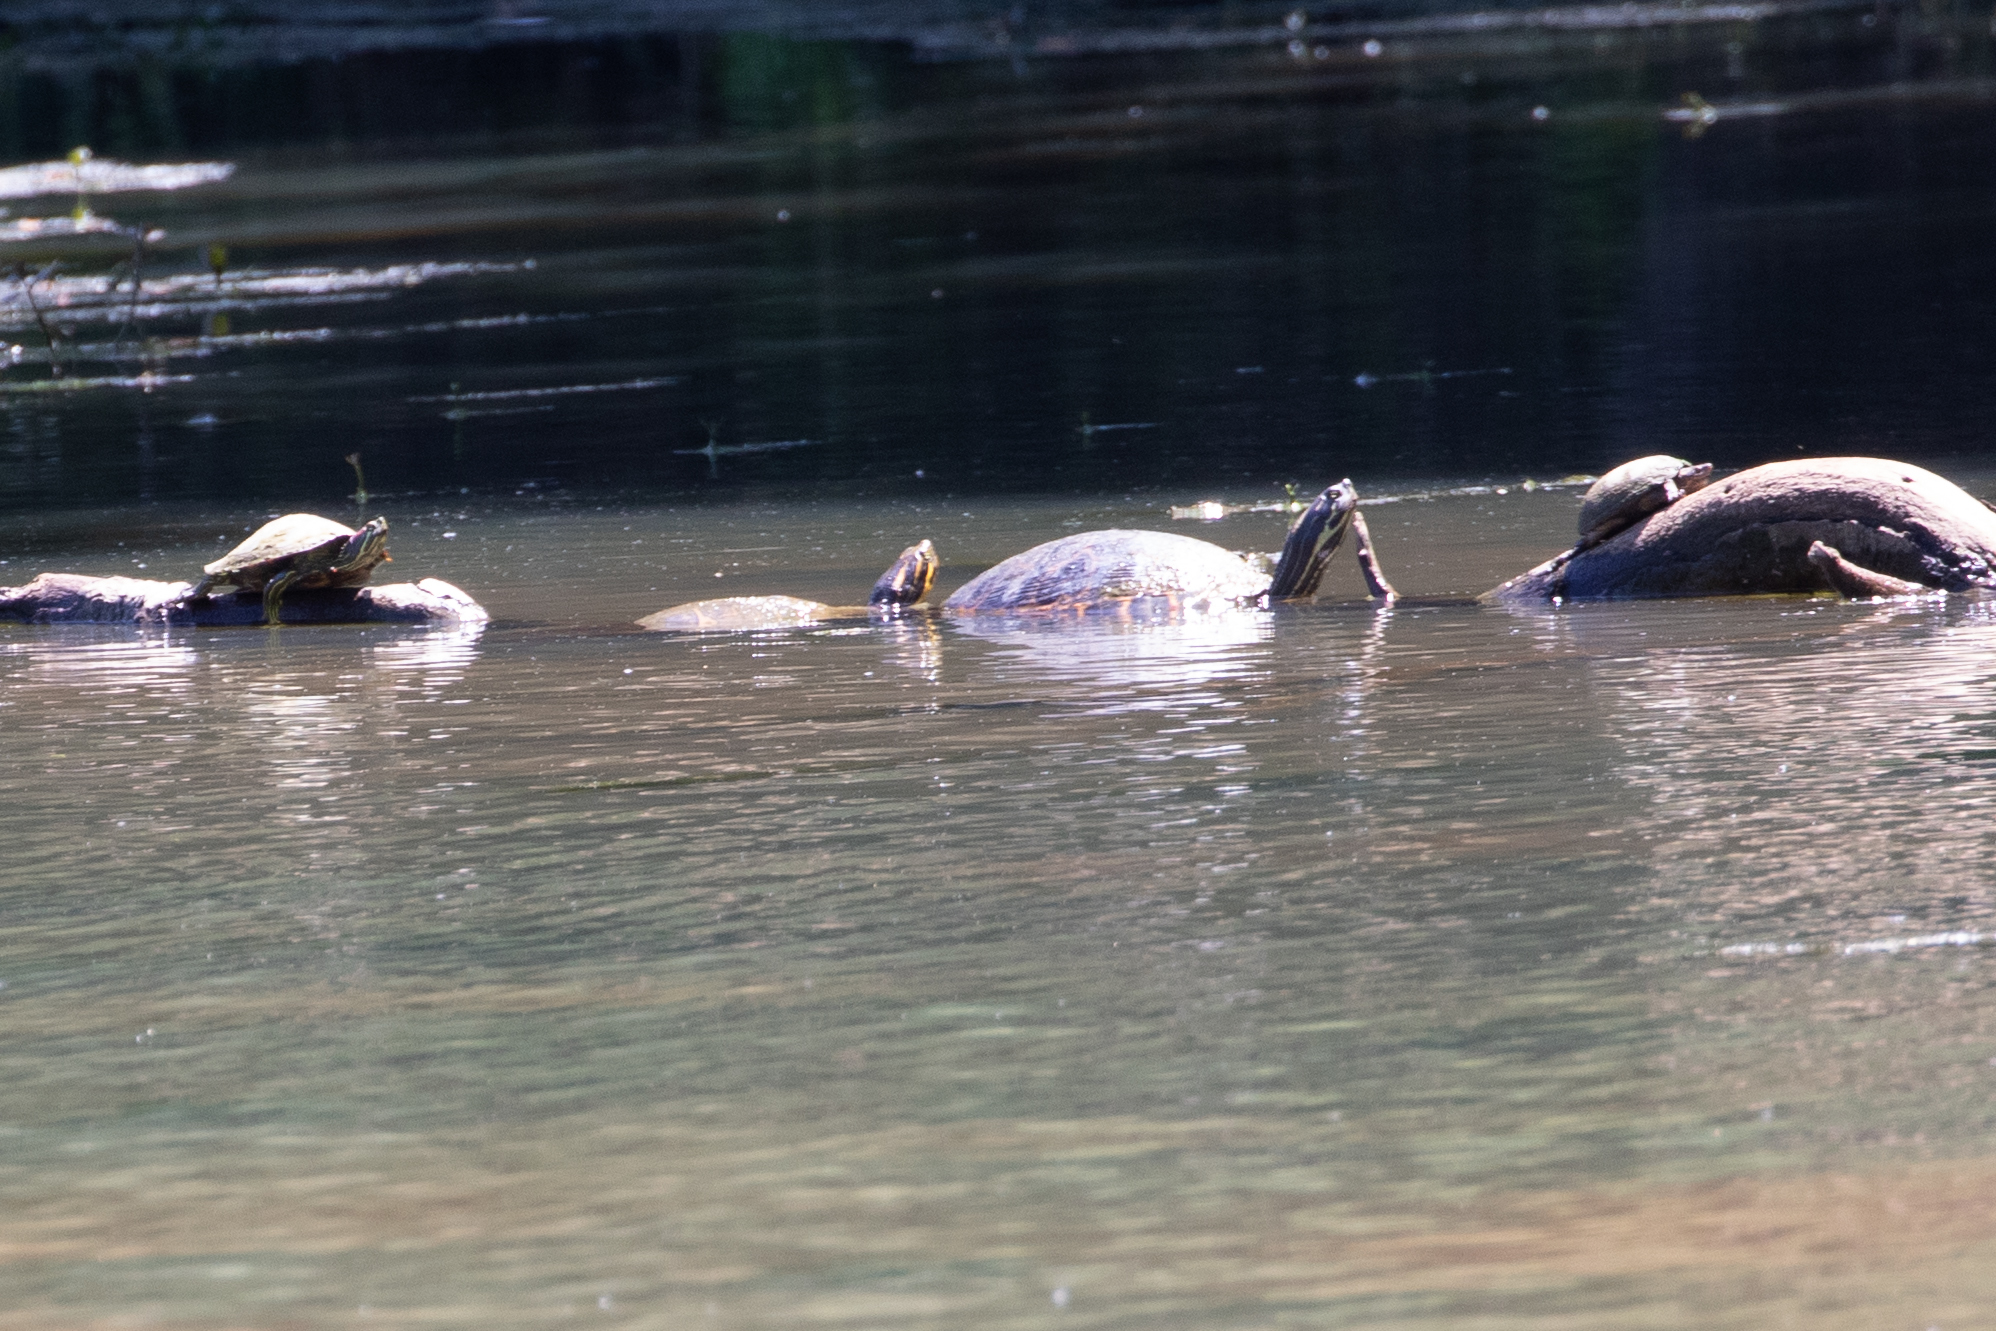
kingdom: Animalia
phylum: Chordata
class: Testudines
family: Emydidae
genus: Trachemys
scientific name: Trachemys scripta
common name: Slider
